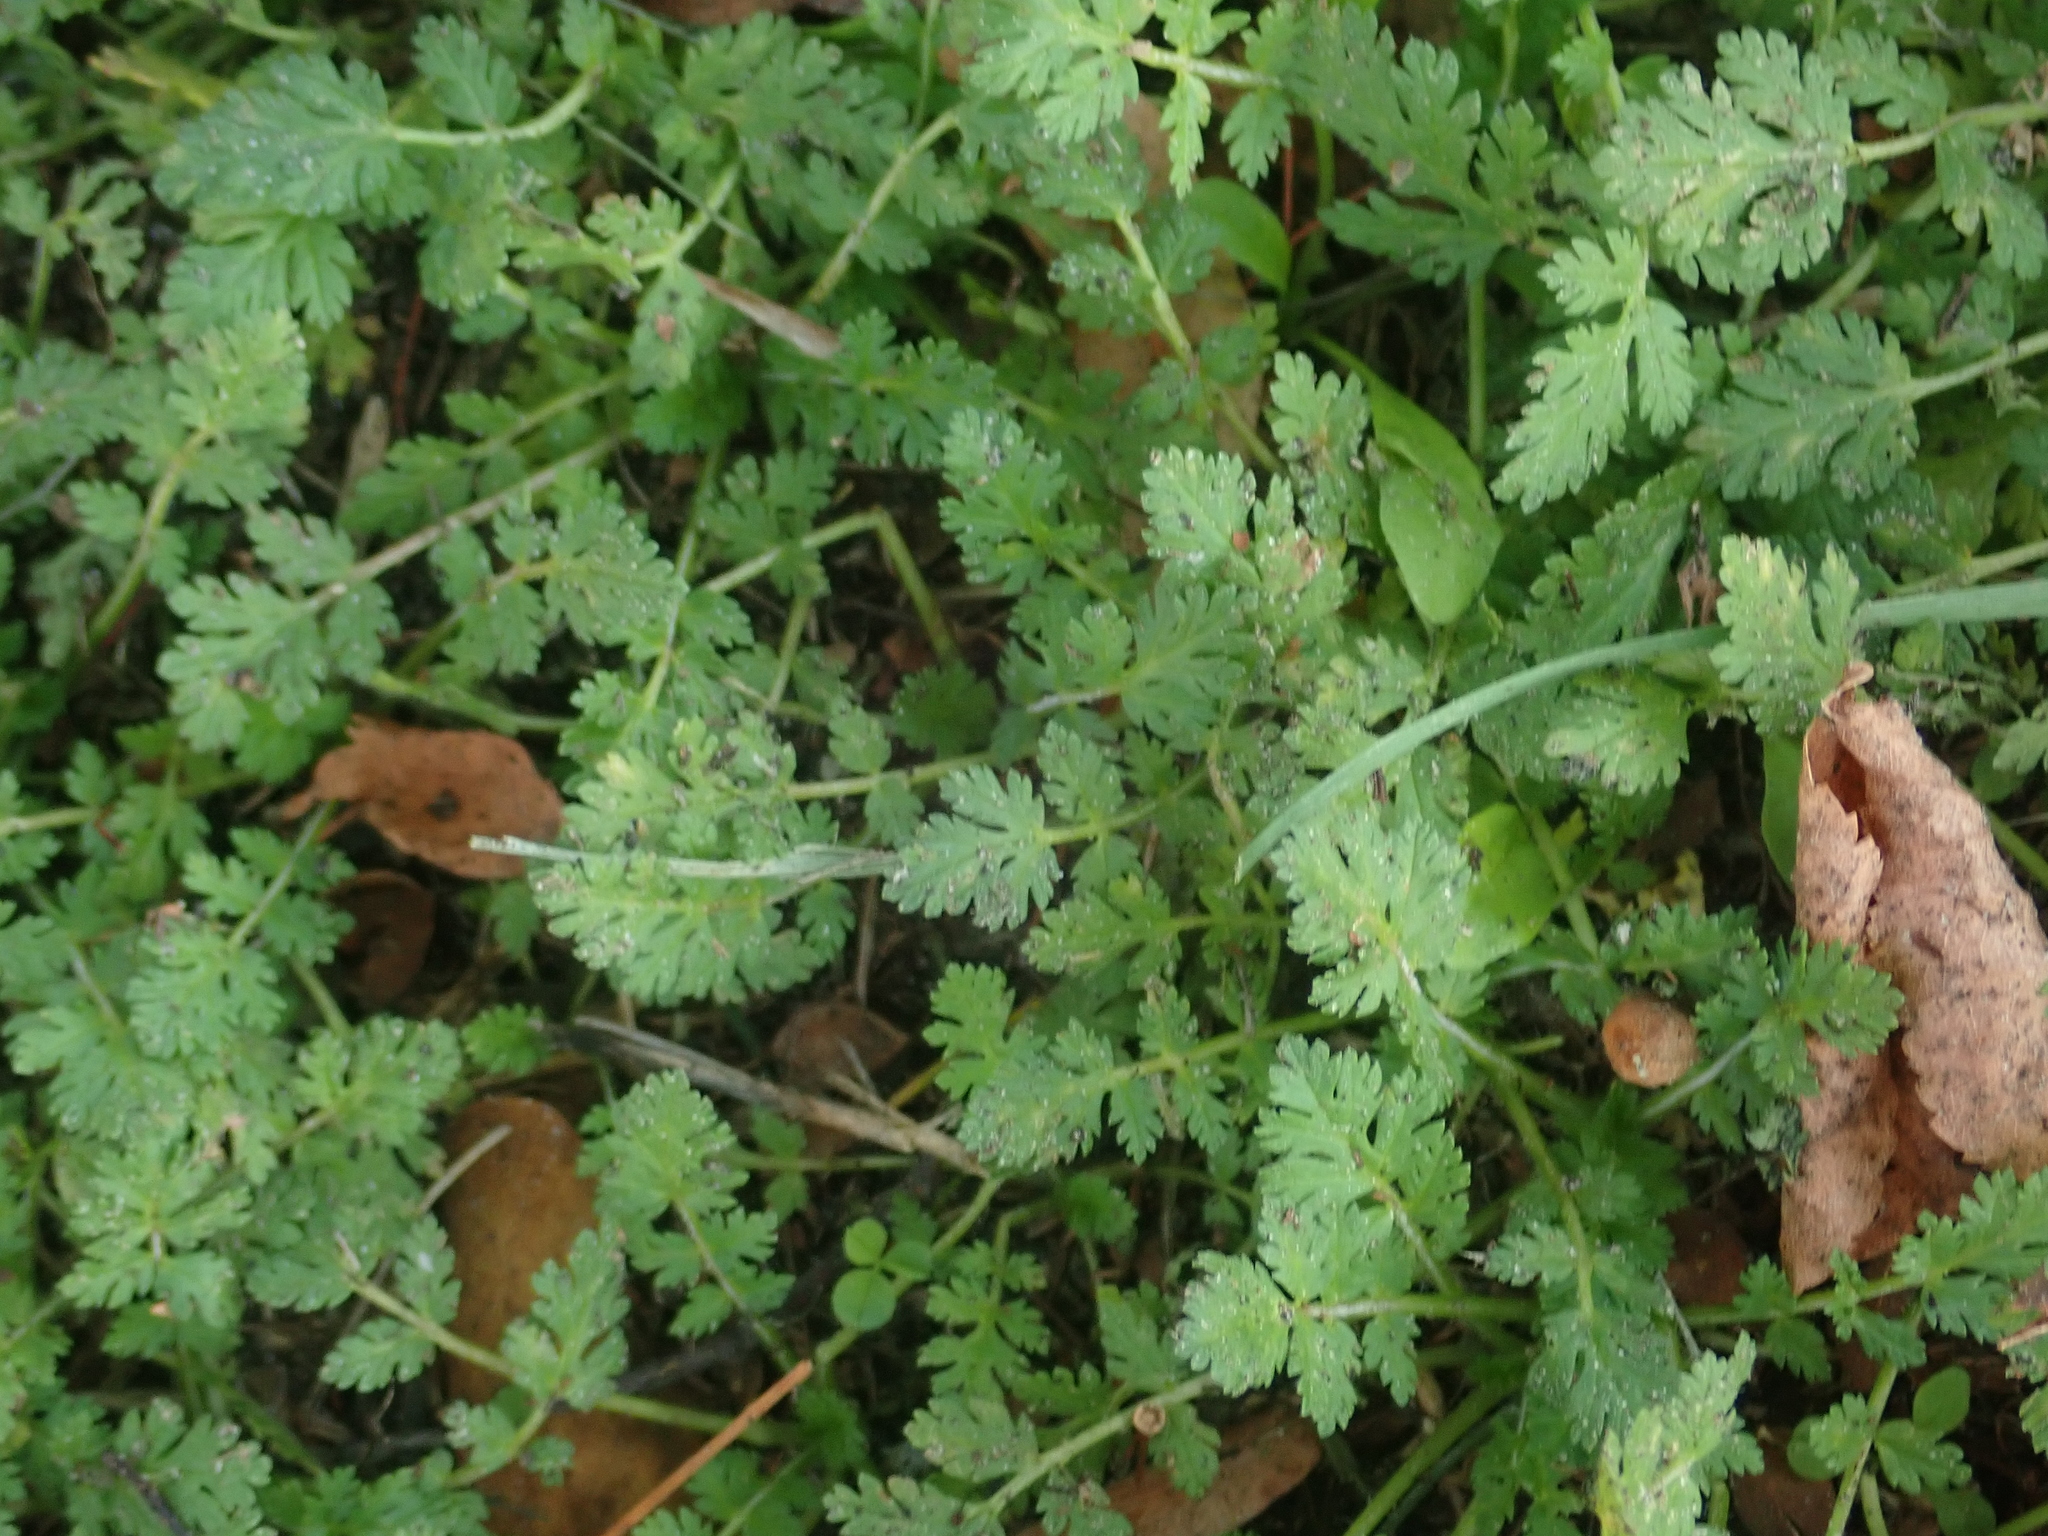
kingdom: Plantae
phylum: Tracheophyta
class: Magnoliopsida
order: Geraniales
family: Geraniaceae
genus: Erodium
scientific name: Erodium cicutarium
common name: Common stork's-bill
